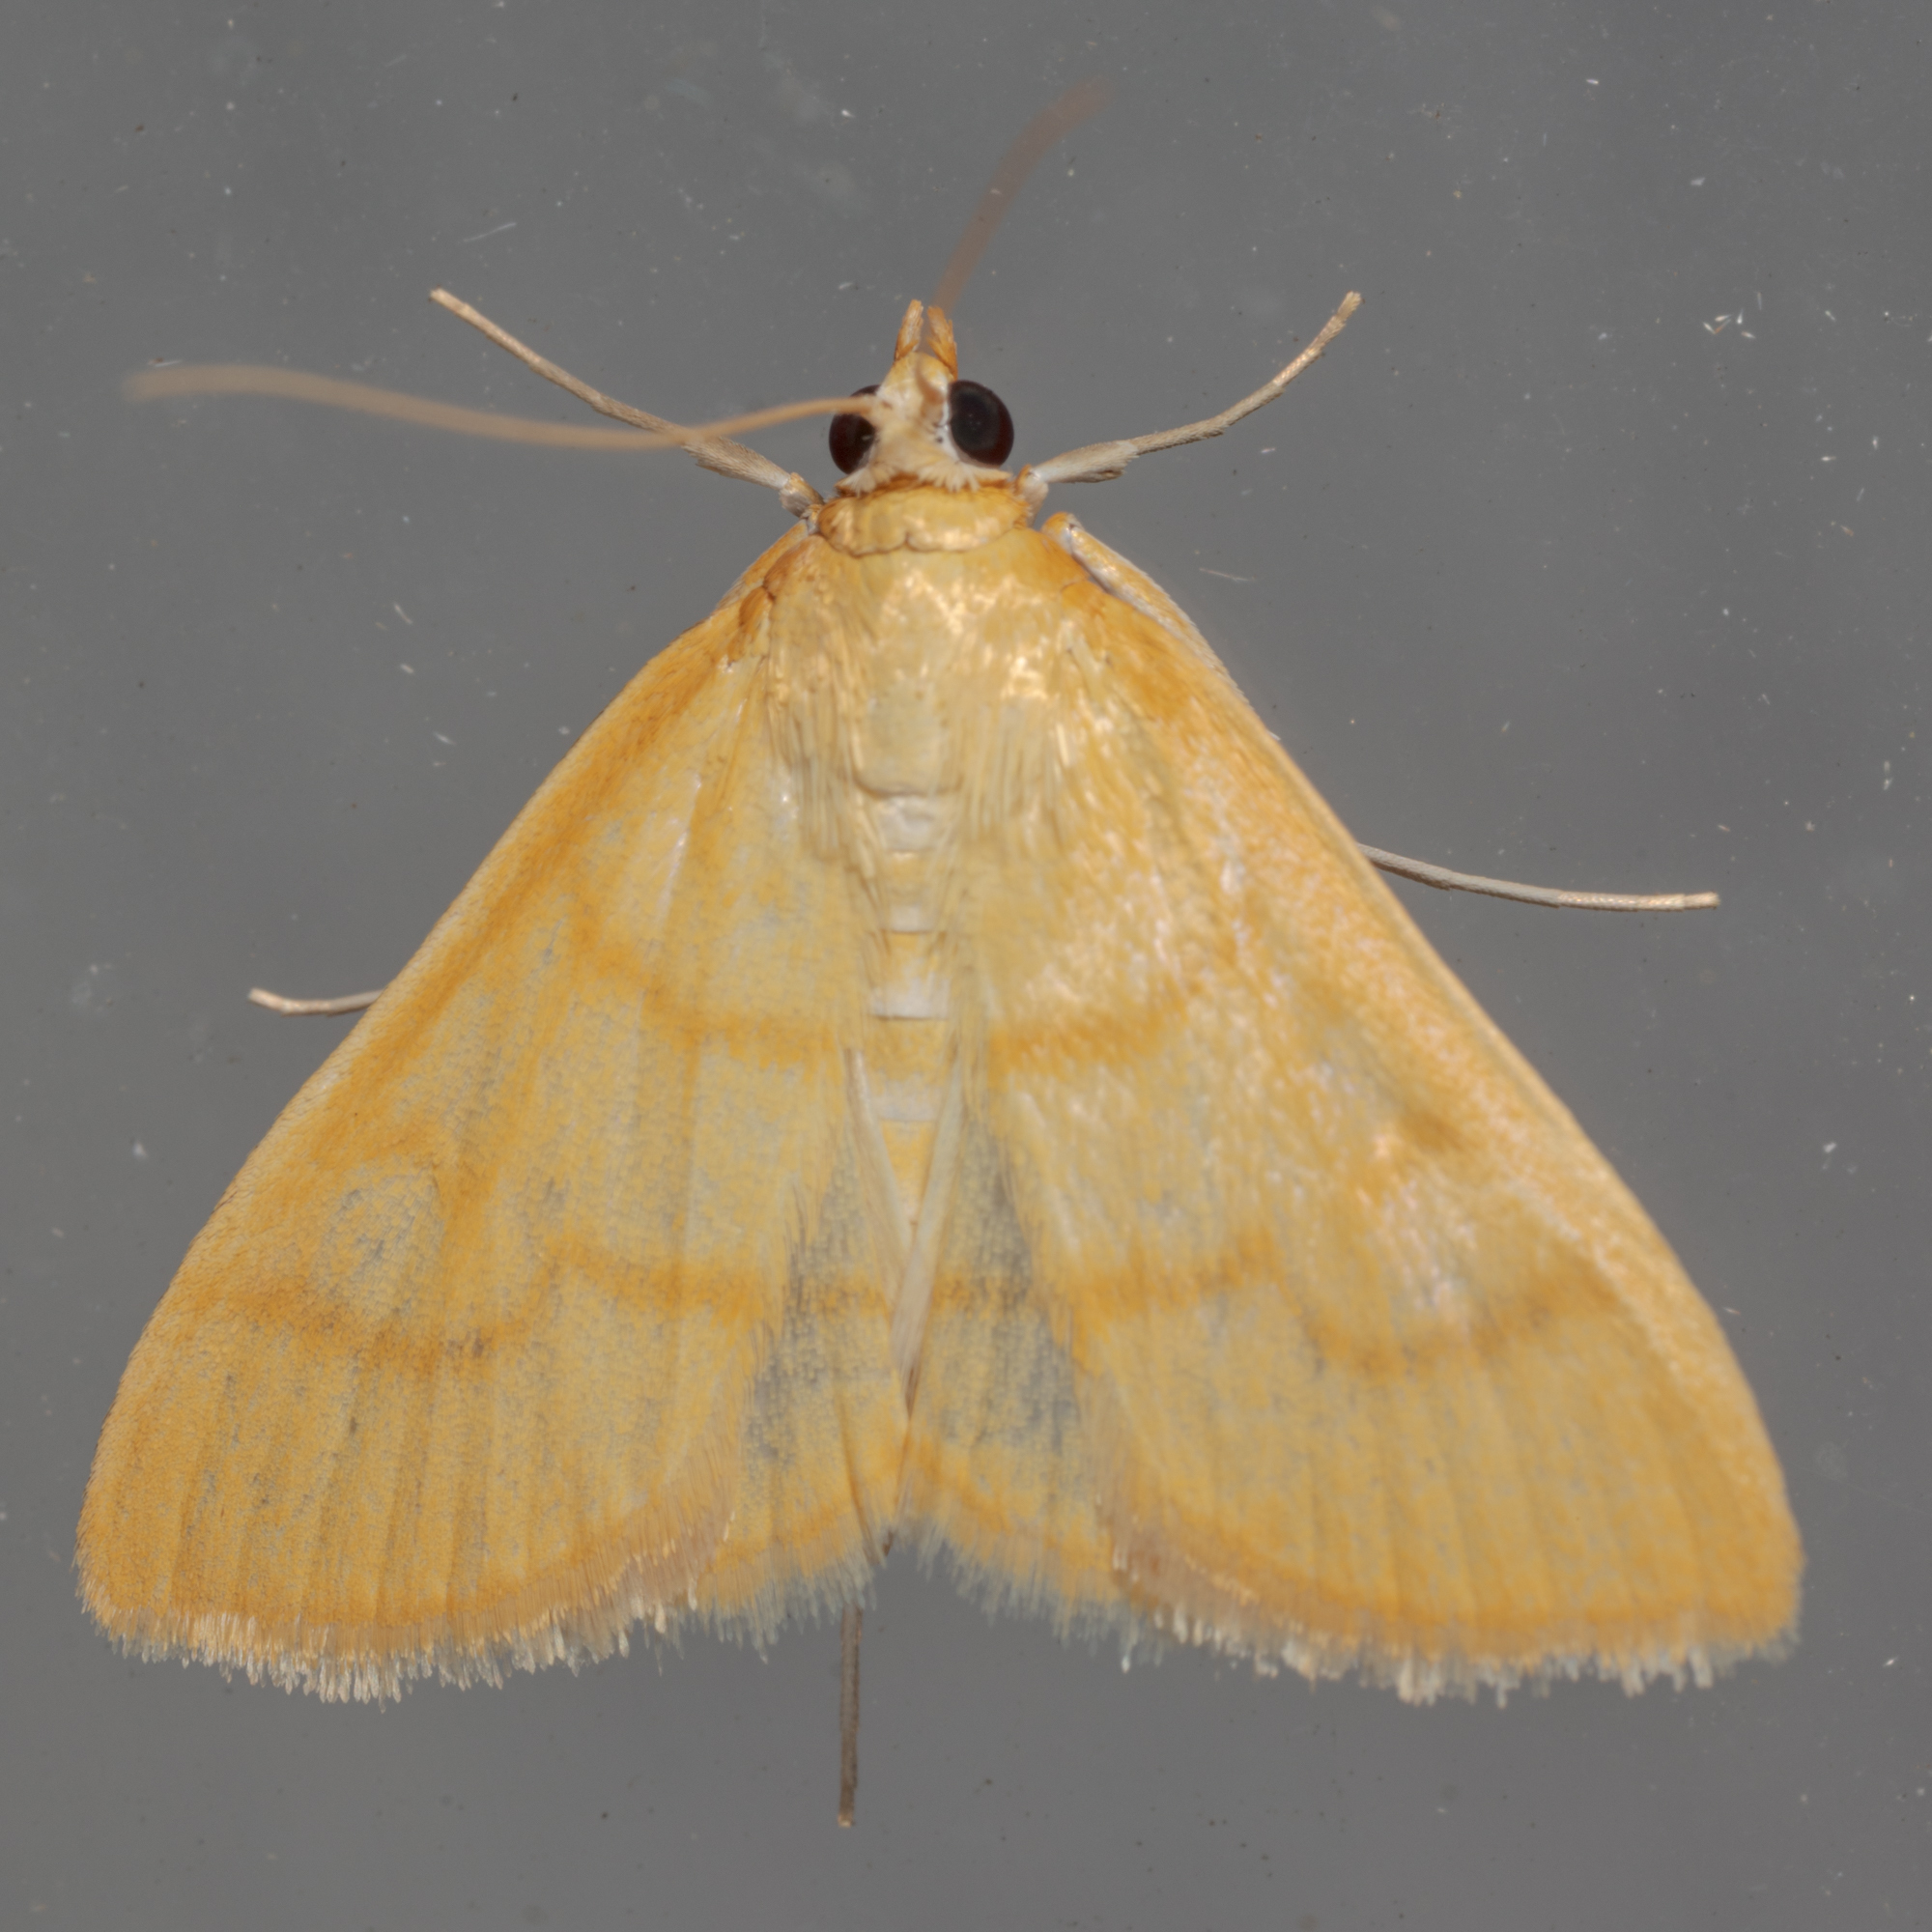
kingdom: Animalia
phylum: Arthropoda
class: Insecta
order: Lepidoptera
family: Crambidae
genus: Helvibotys
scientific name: Helvibotys helvialis
